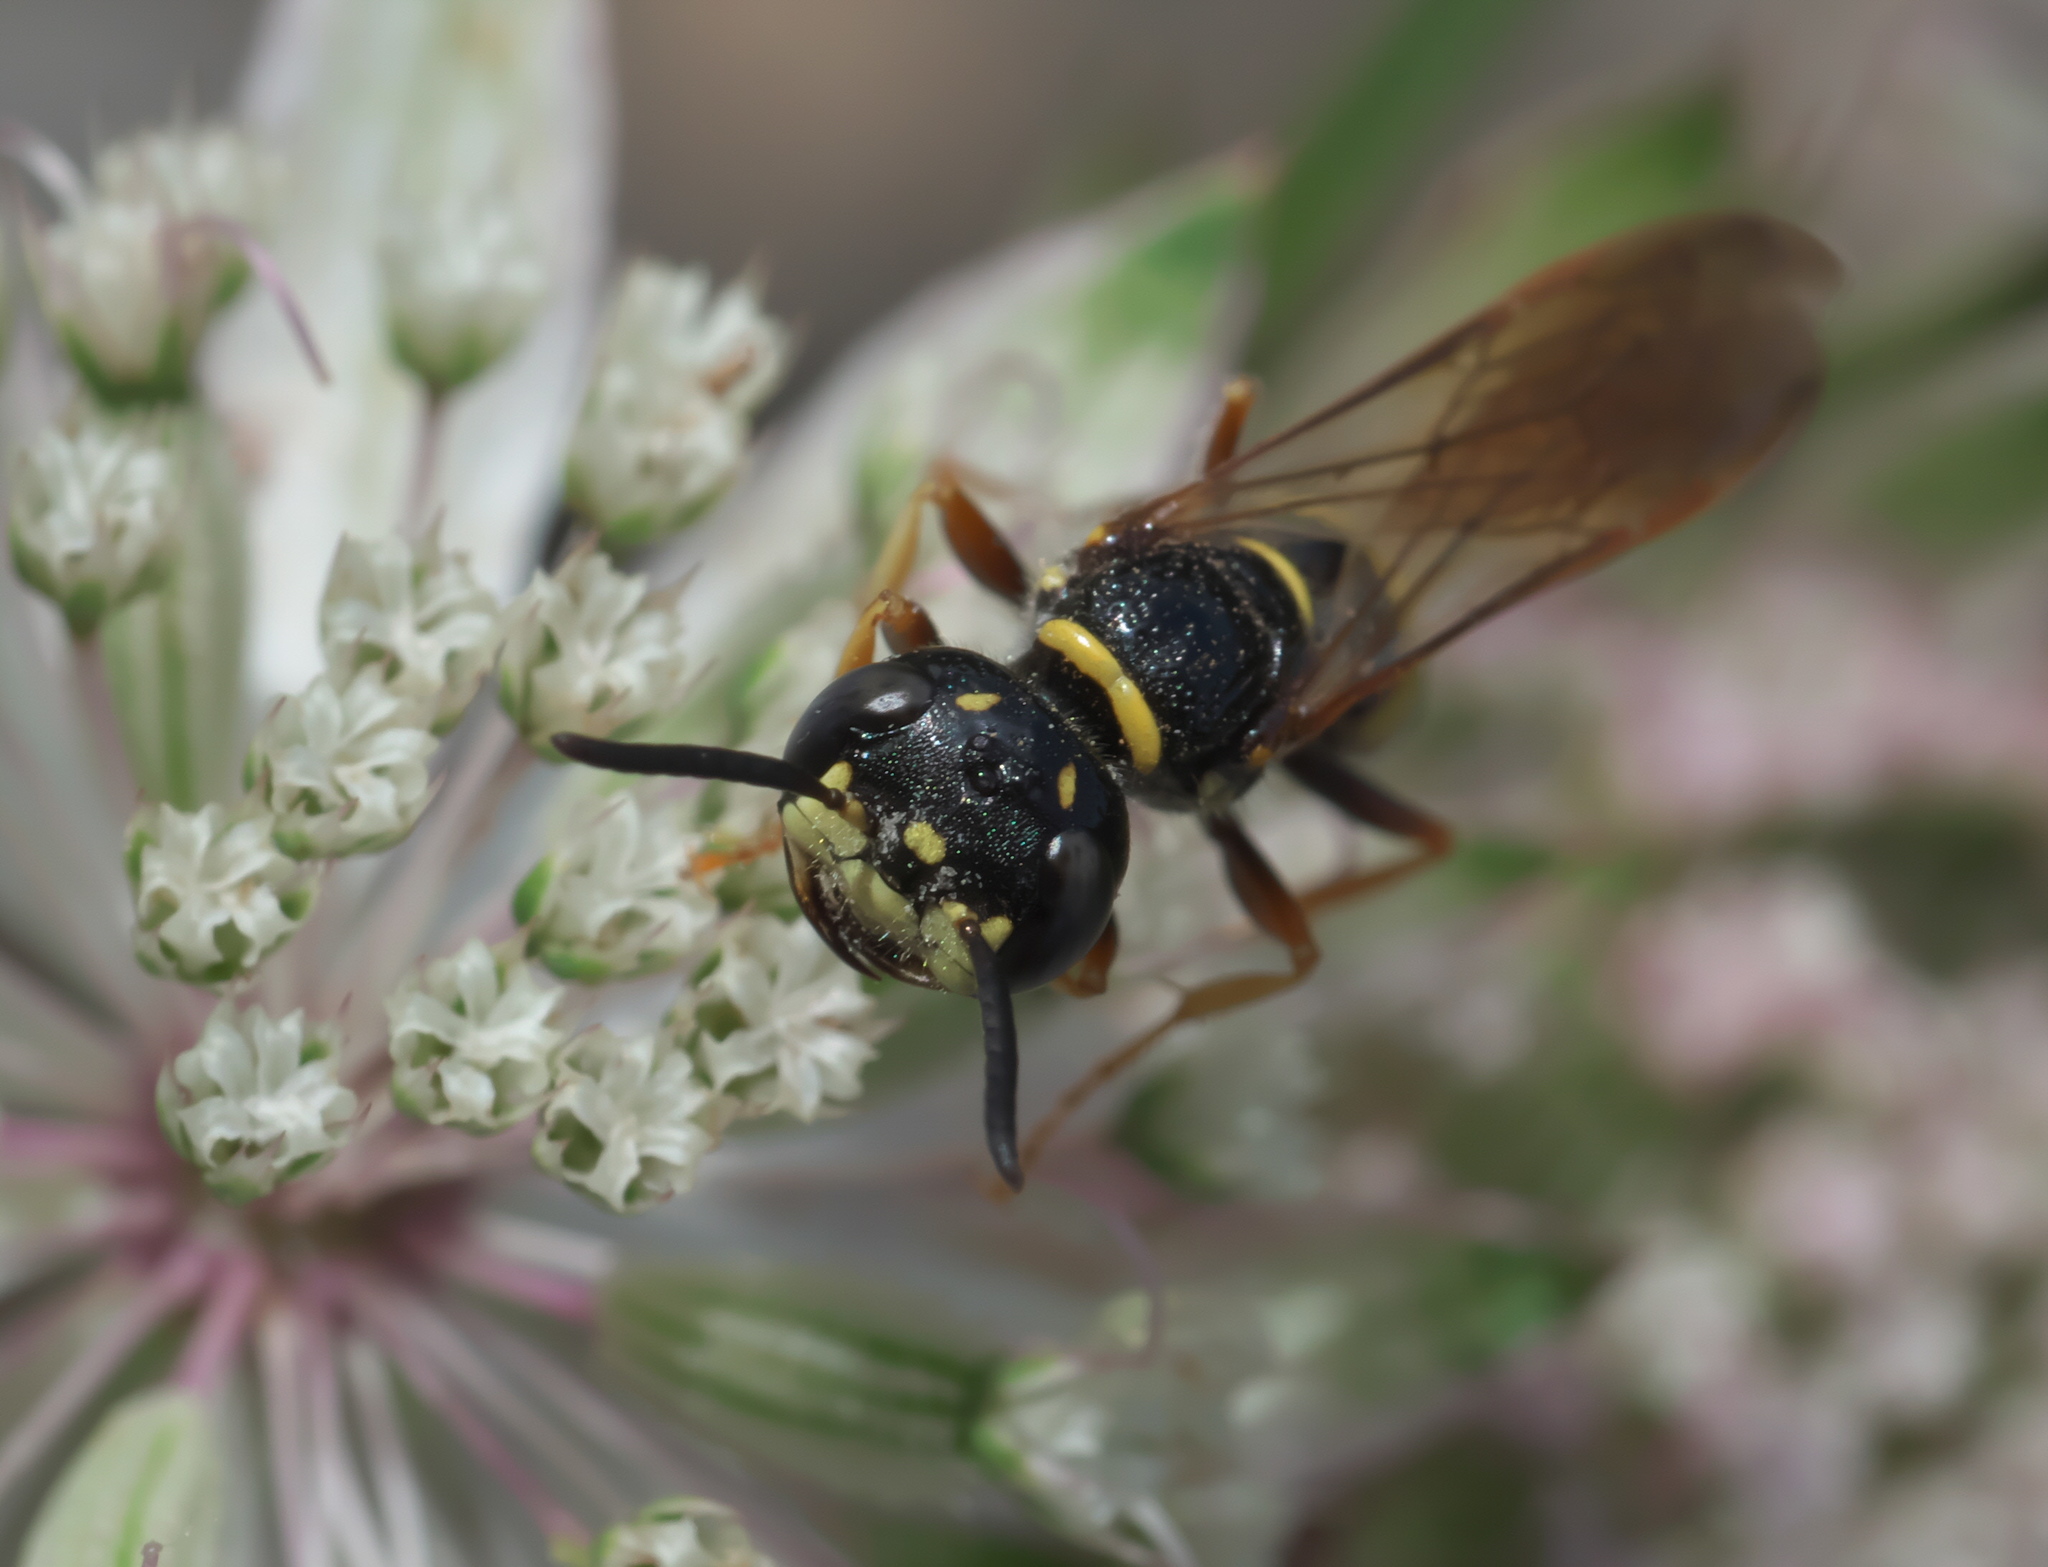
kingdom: Animalia
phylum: Arthropoda
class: Insecta
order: Hymenoptera
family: Crabronidae
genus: Philanthus
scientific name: Philanthus gibbosus
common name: Humped beewolf
